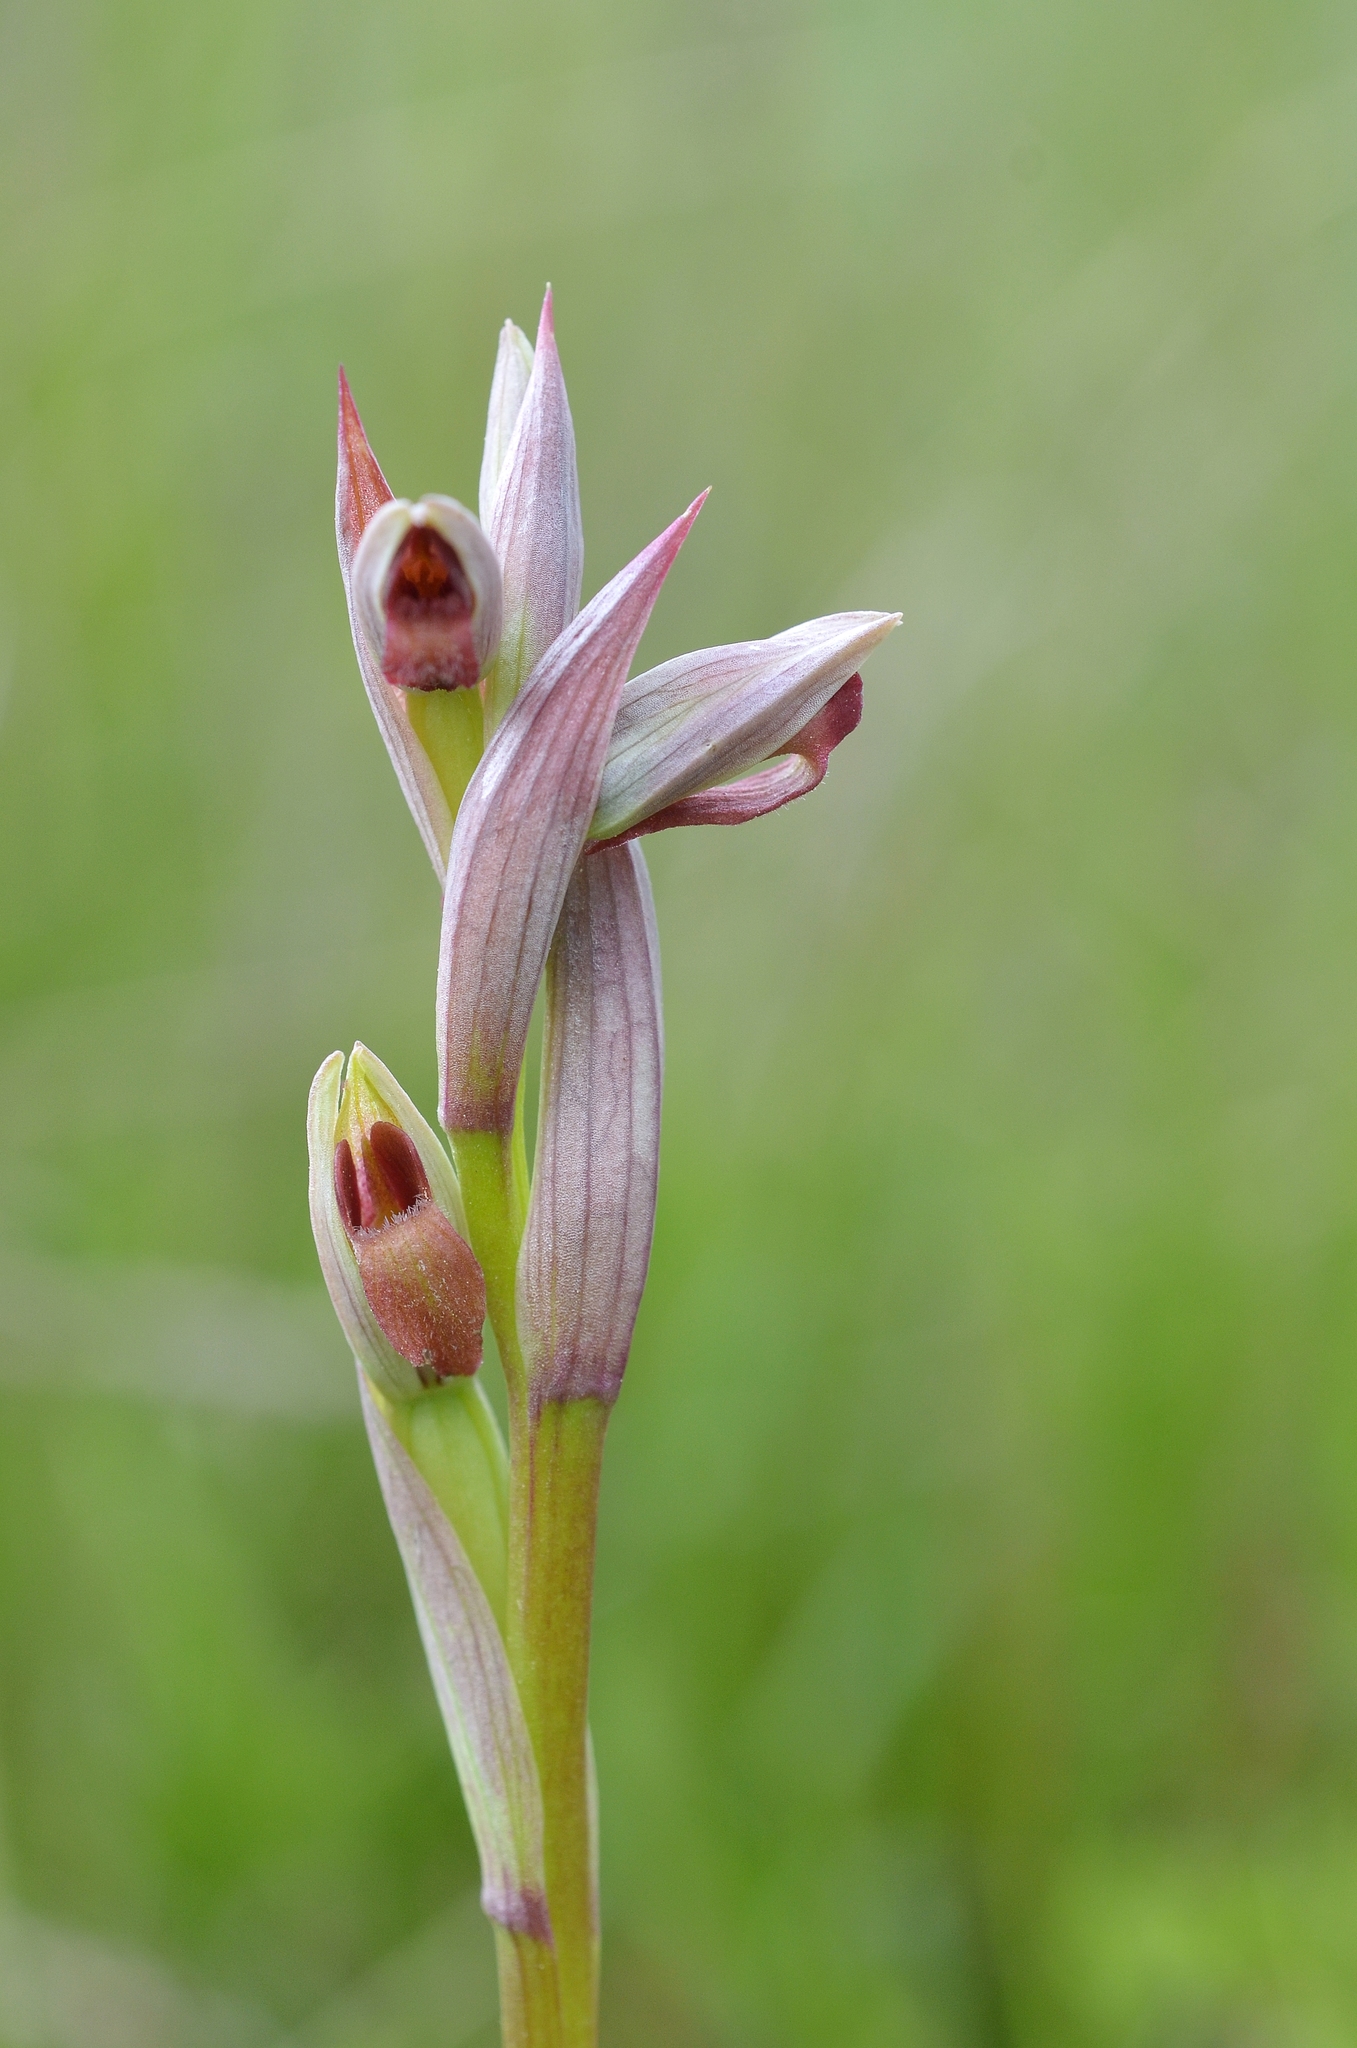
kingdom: Plantae
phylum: Tracheophyta
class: Liliopsida
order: Asparagales
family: Orchidaceae
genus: Serapias
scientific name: Serapias parviflora
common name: Small-flowered tongue-orchid
